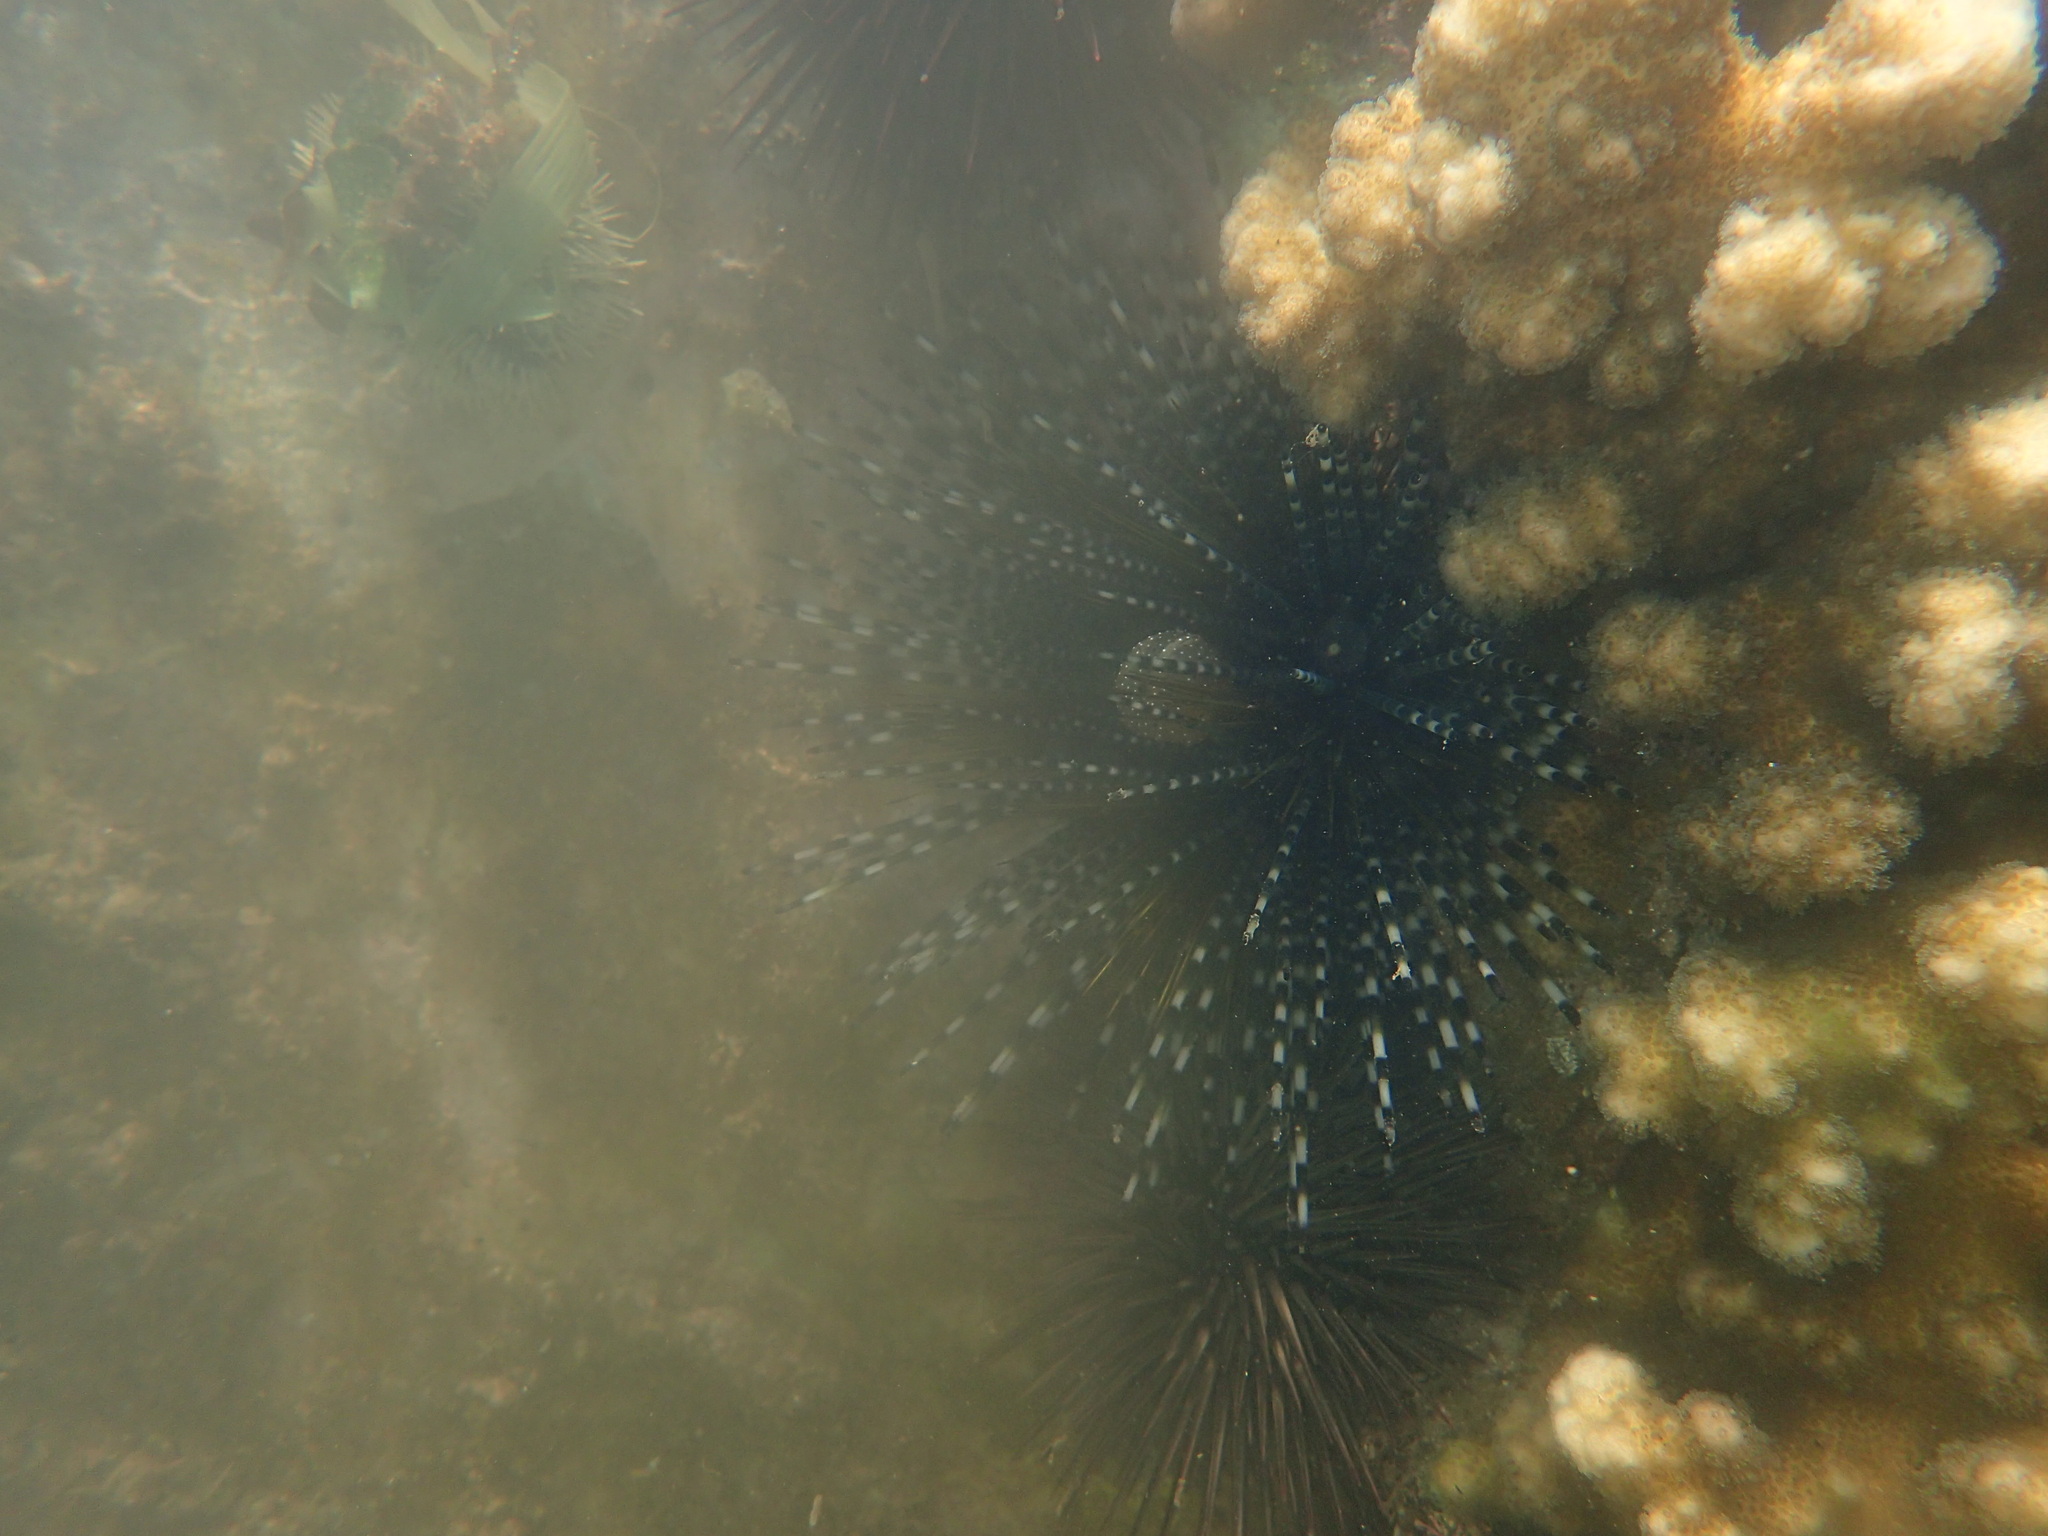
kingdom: Animalia
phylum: Echinodermata
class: Echinoidea
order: Diadematoida
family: Diadematidae
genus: Echinothrix
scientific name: Echinothrix calamaris
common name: Banded sea urchin
